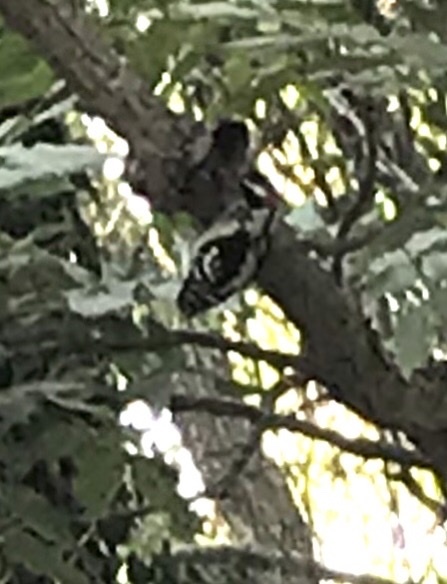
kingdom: Animalia
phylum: Chordata
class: Aves
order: Piciformes
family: Picidae
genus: Dryobates
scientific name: Dryobates pubescens
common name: Downy woodpecker
